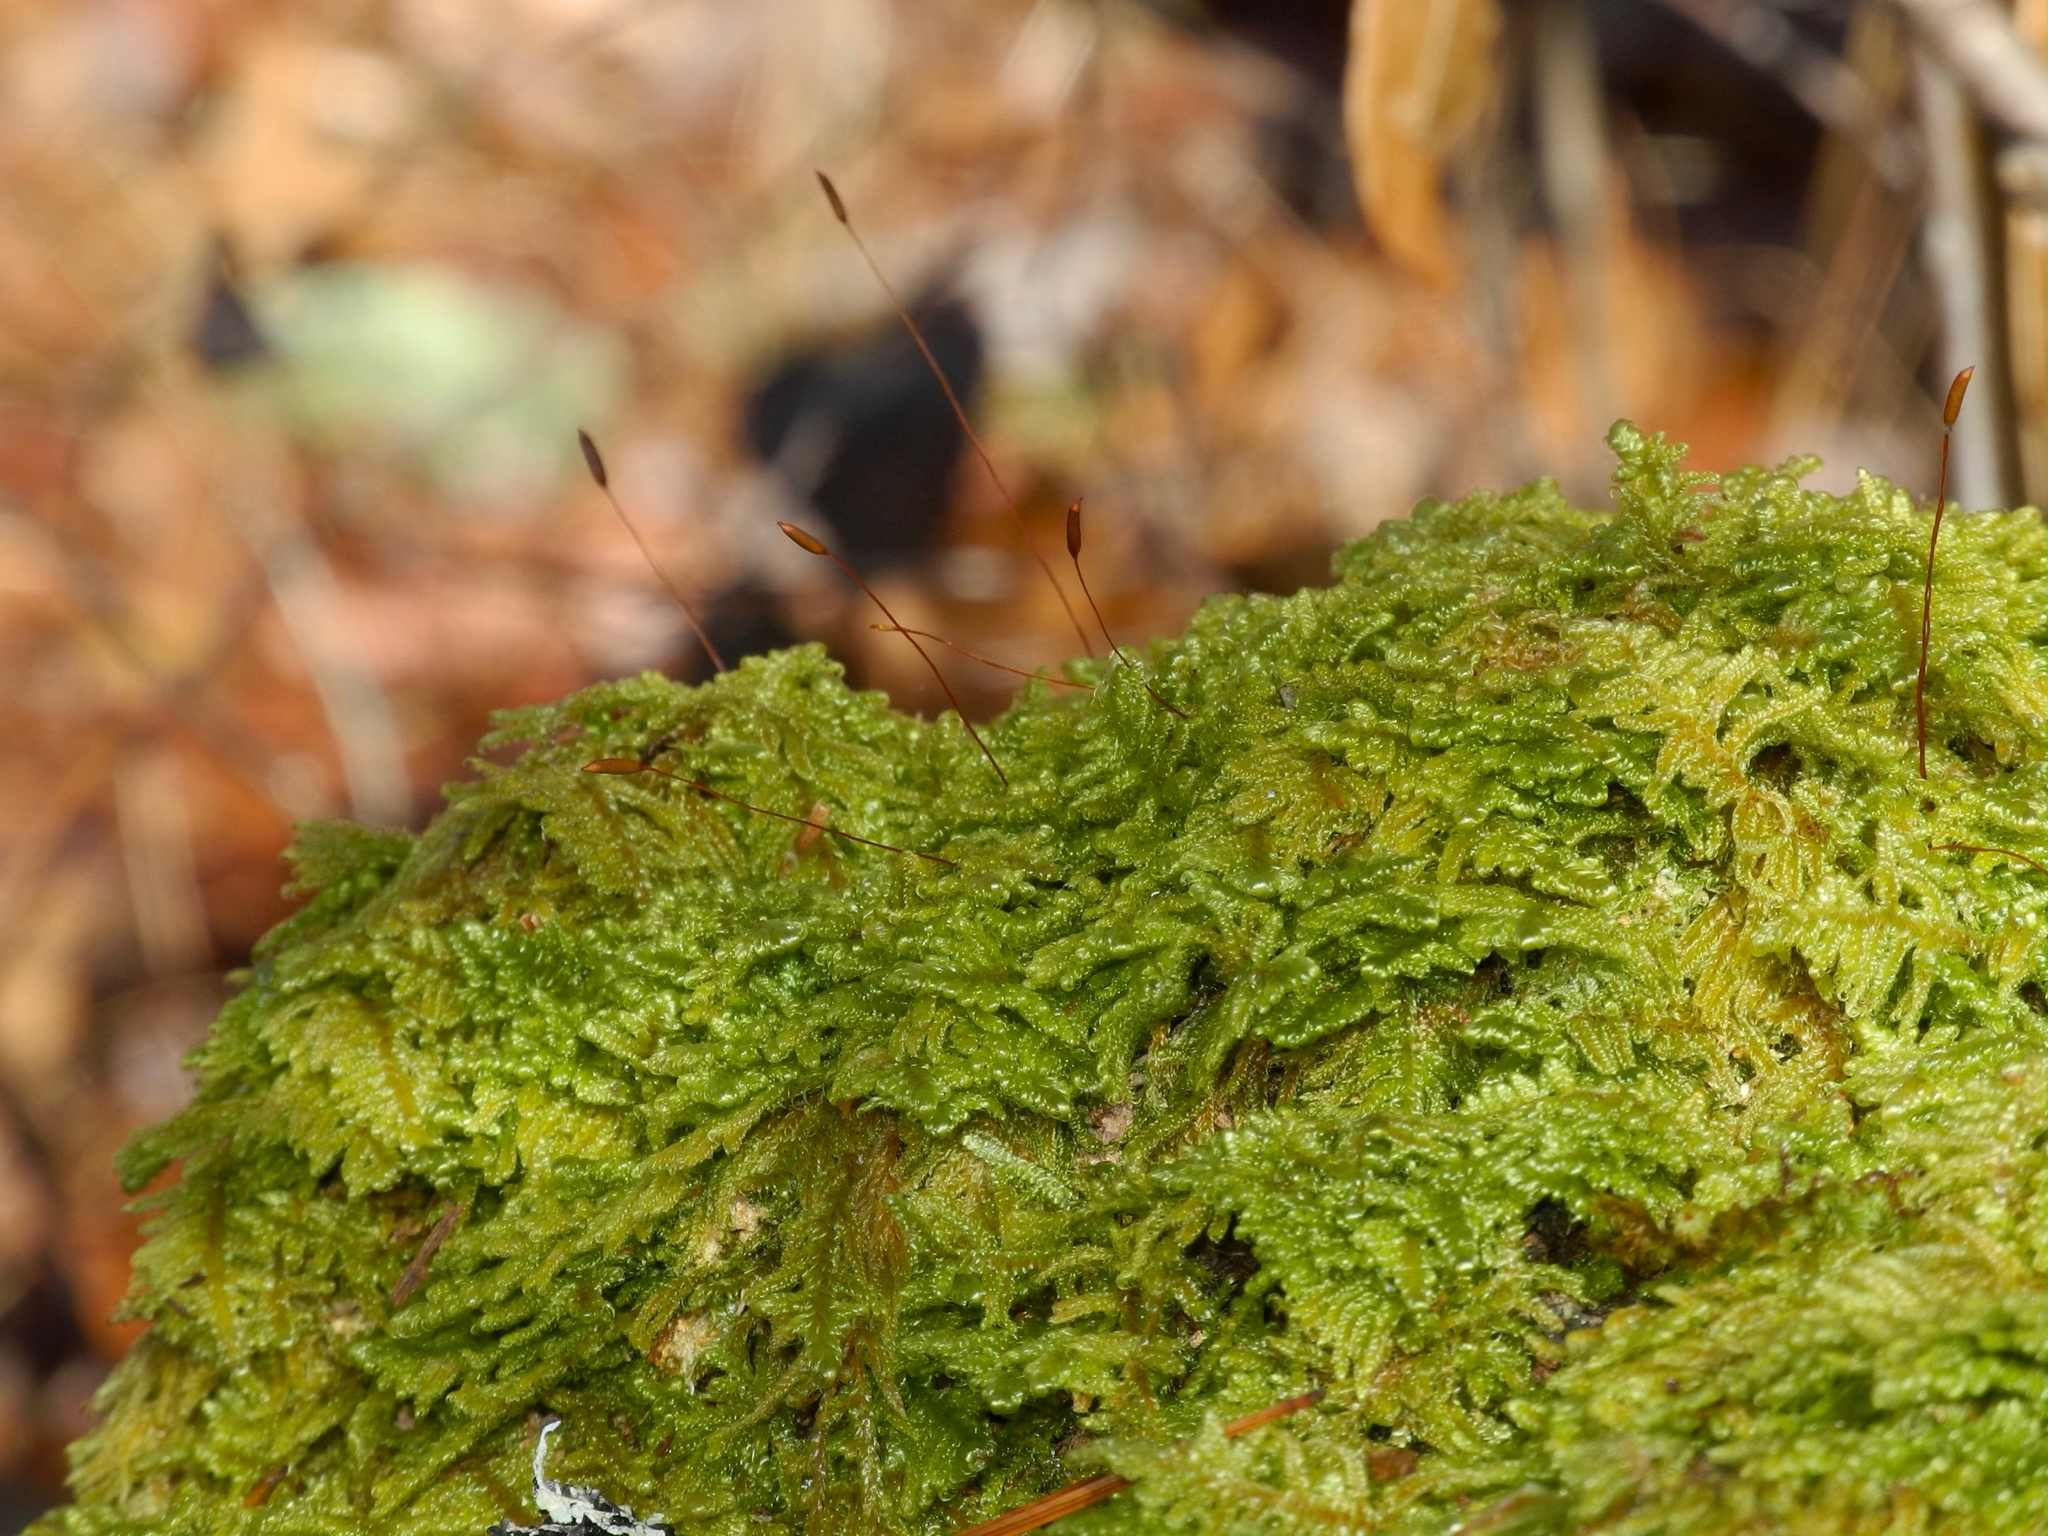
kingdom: Plantae
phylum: Bryophyta
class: Bryopsida
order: Hypnales
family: Callicladiaceae
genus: Callicladium
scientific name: Callicladium imponens
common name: Brocade moss
